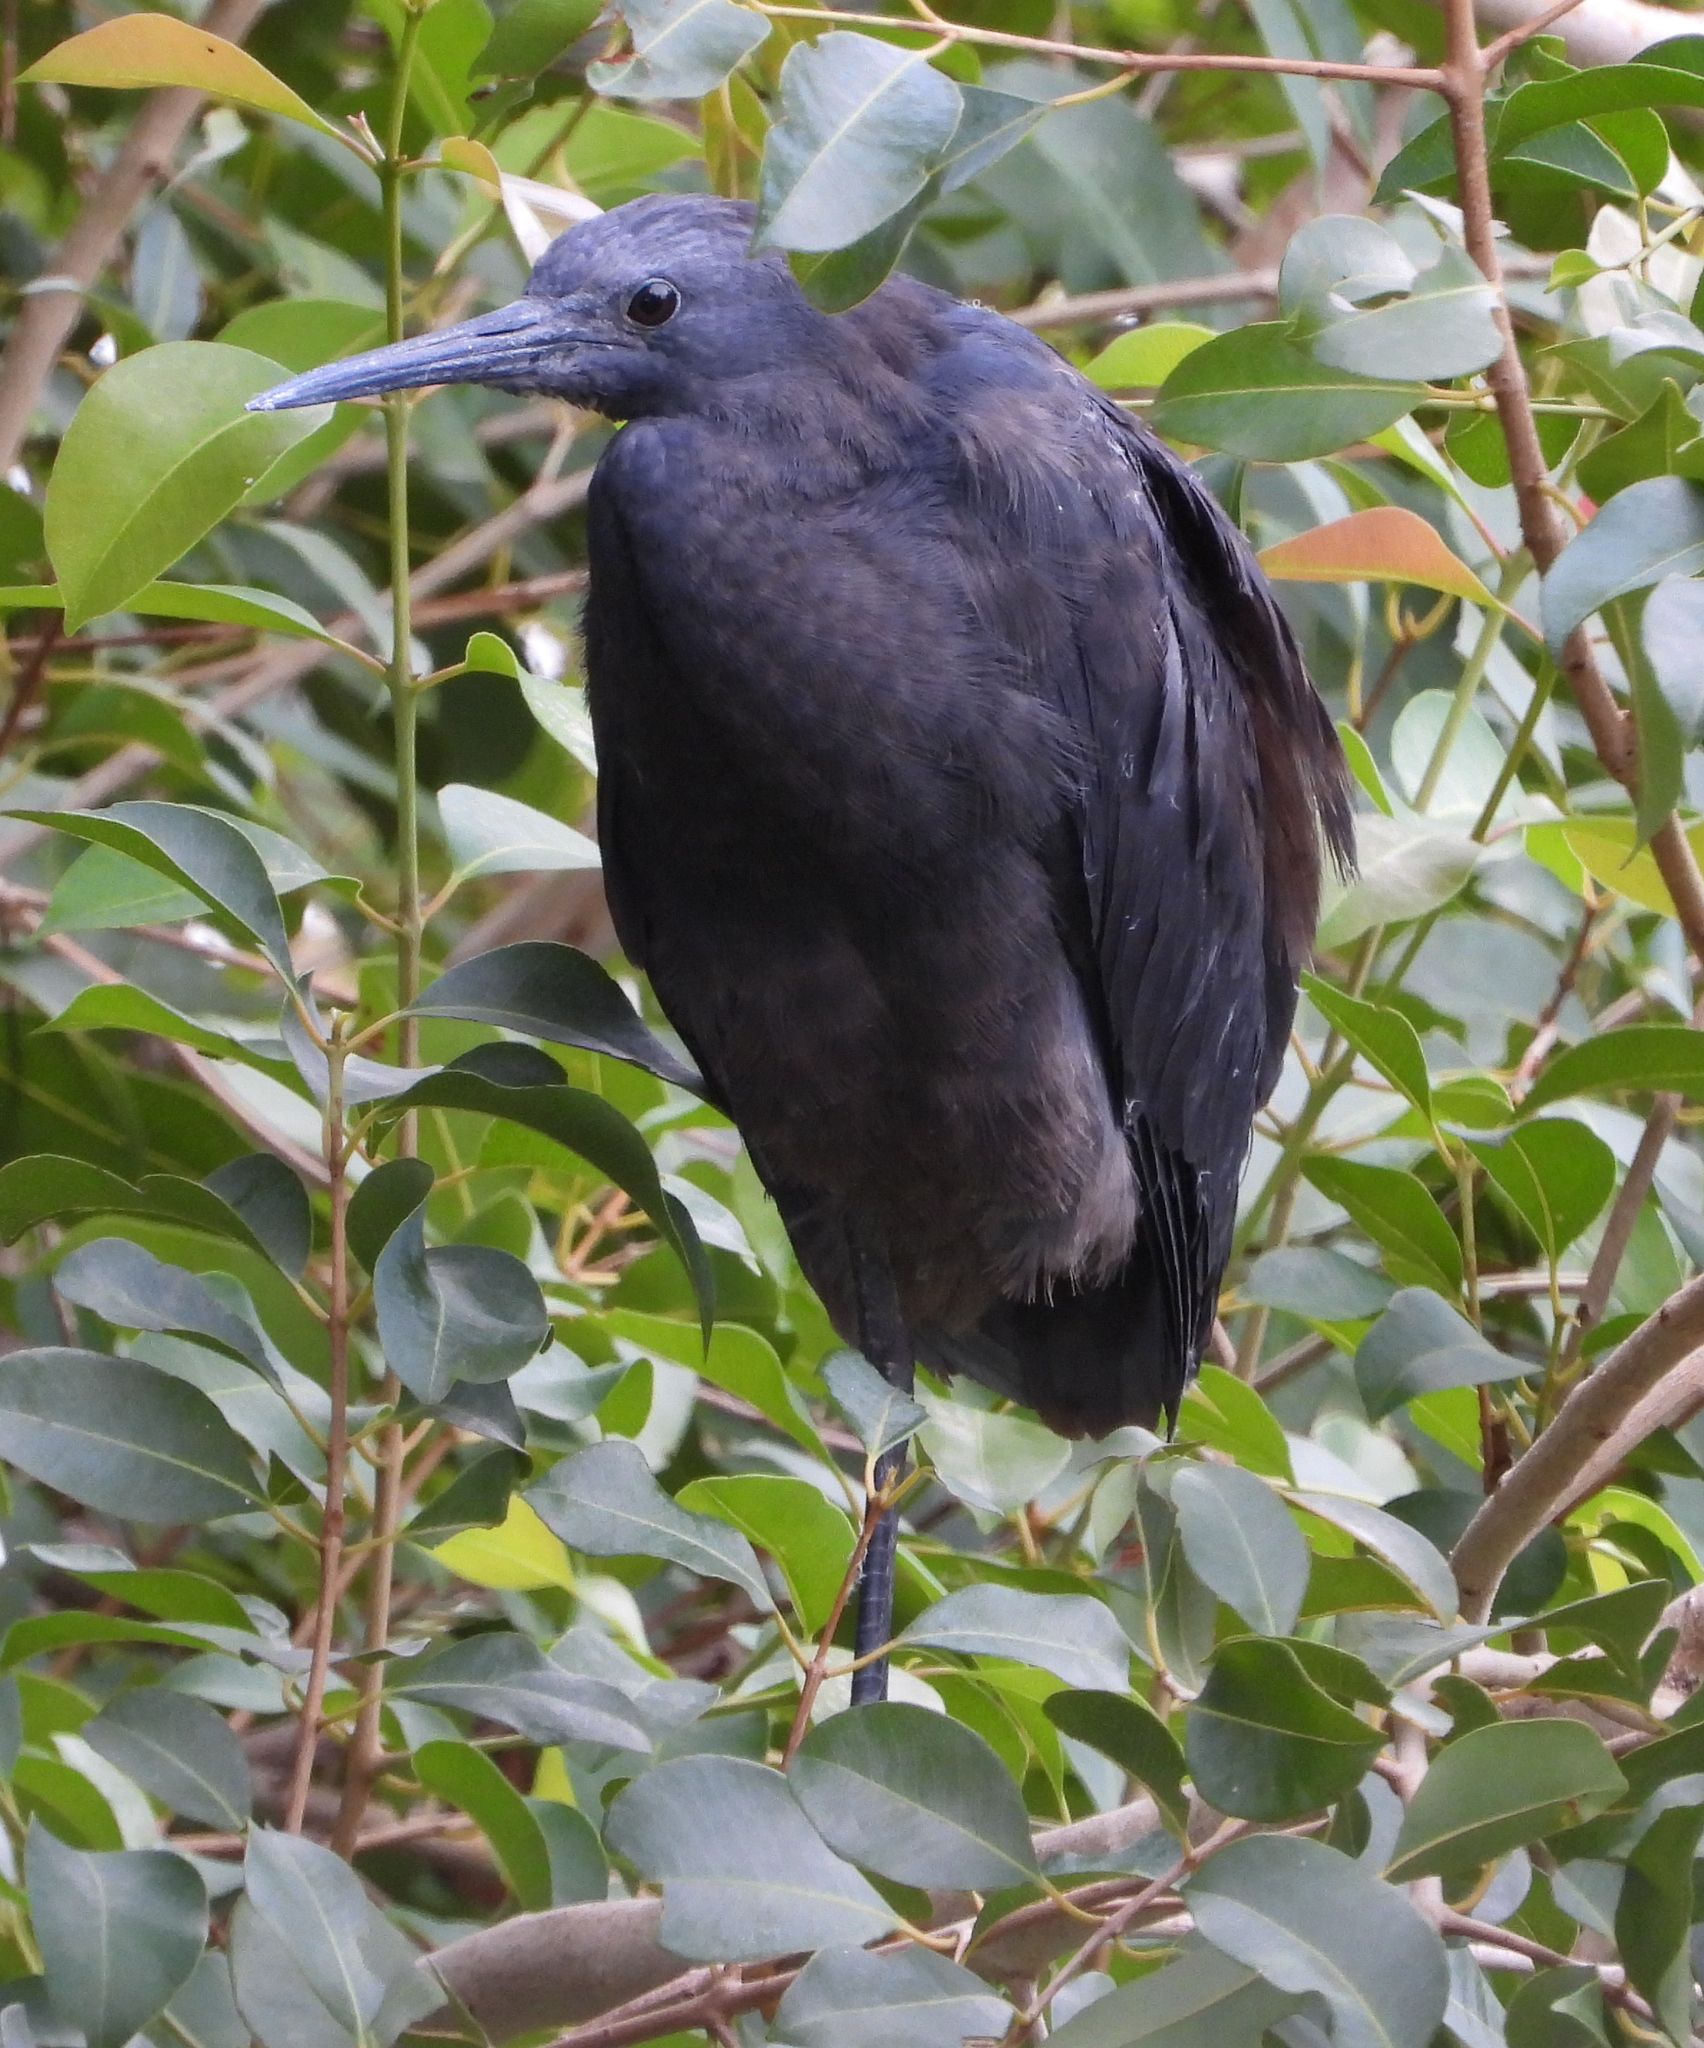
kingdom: Animalia
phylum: Chordata
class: Aves
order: Pelecaniformes
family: Ardeidae
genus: Egretta
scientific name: Egretta ardesiaca
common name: Black heron
